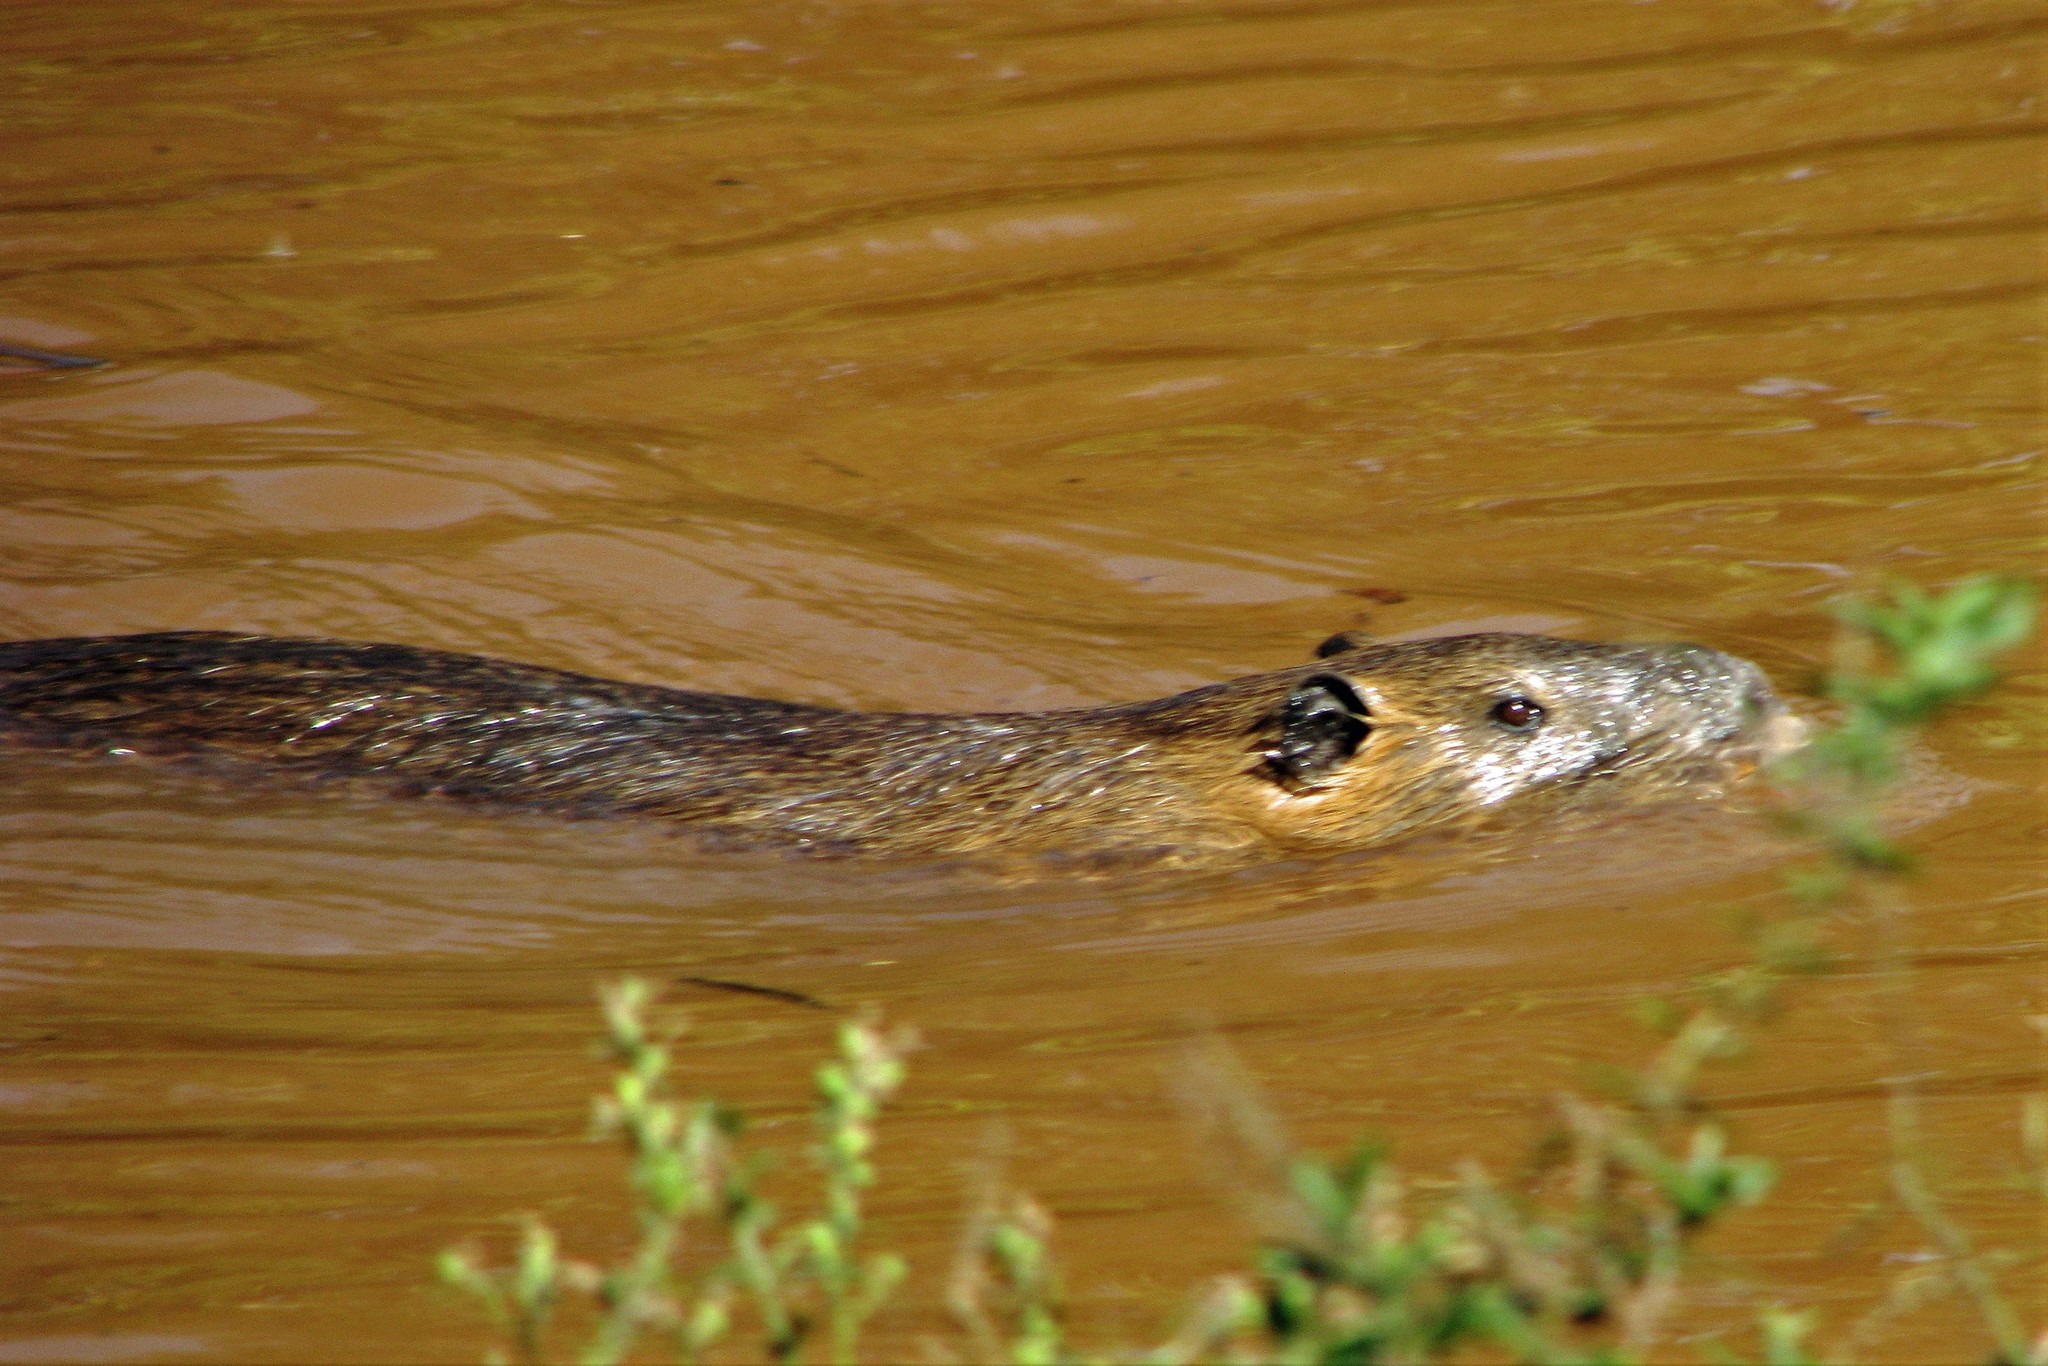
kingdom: Animalia
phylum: Chordata
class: Mammalia
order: Rodentia
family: Myocastoridae
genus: Myocastor
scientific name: Myocastor coypus
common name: Coypu
